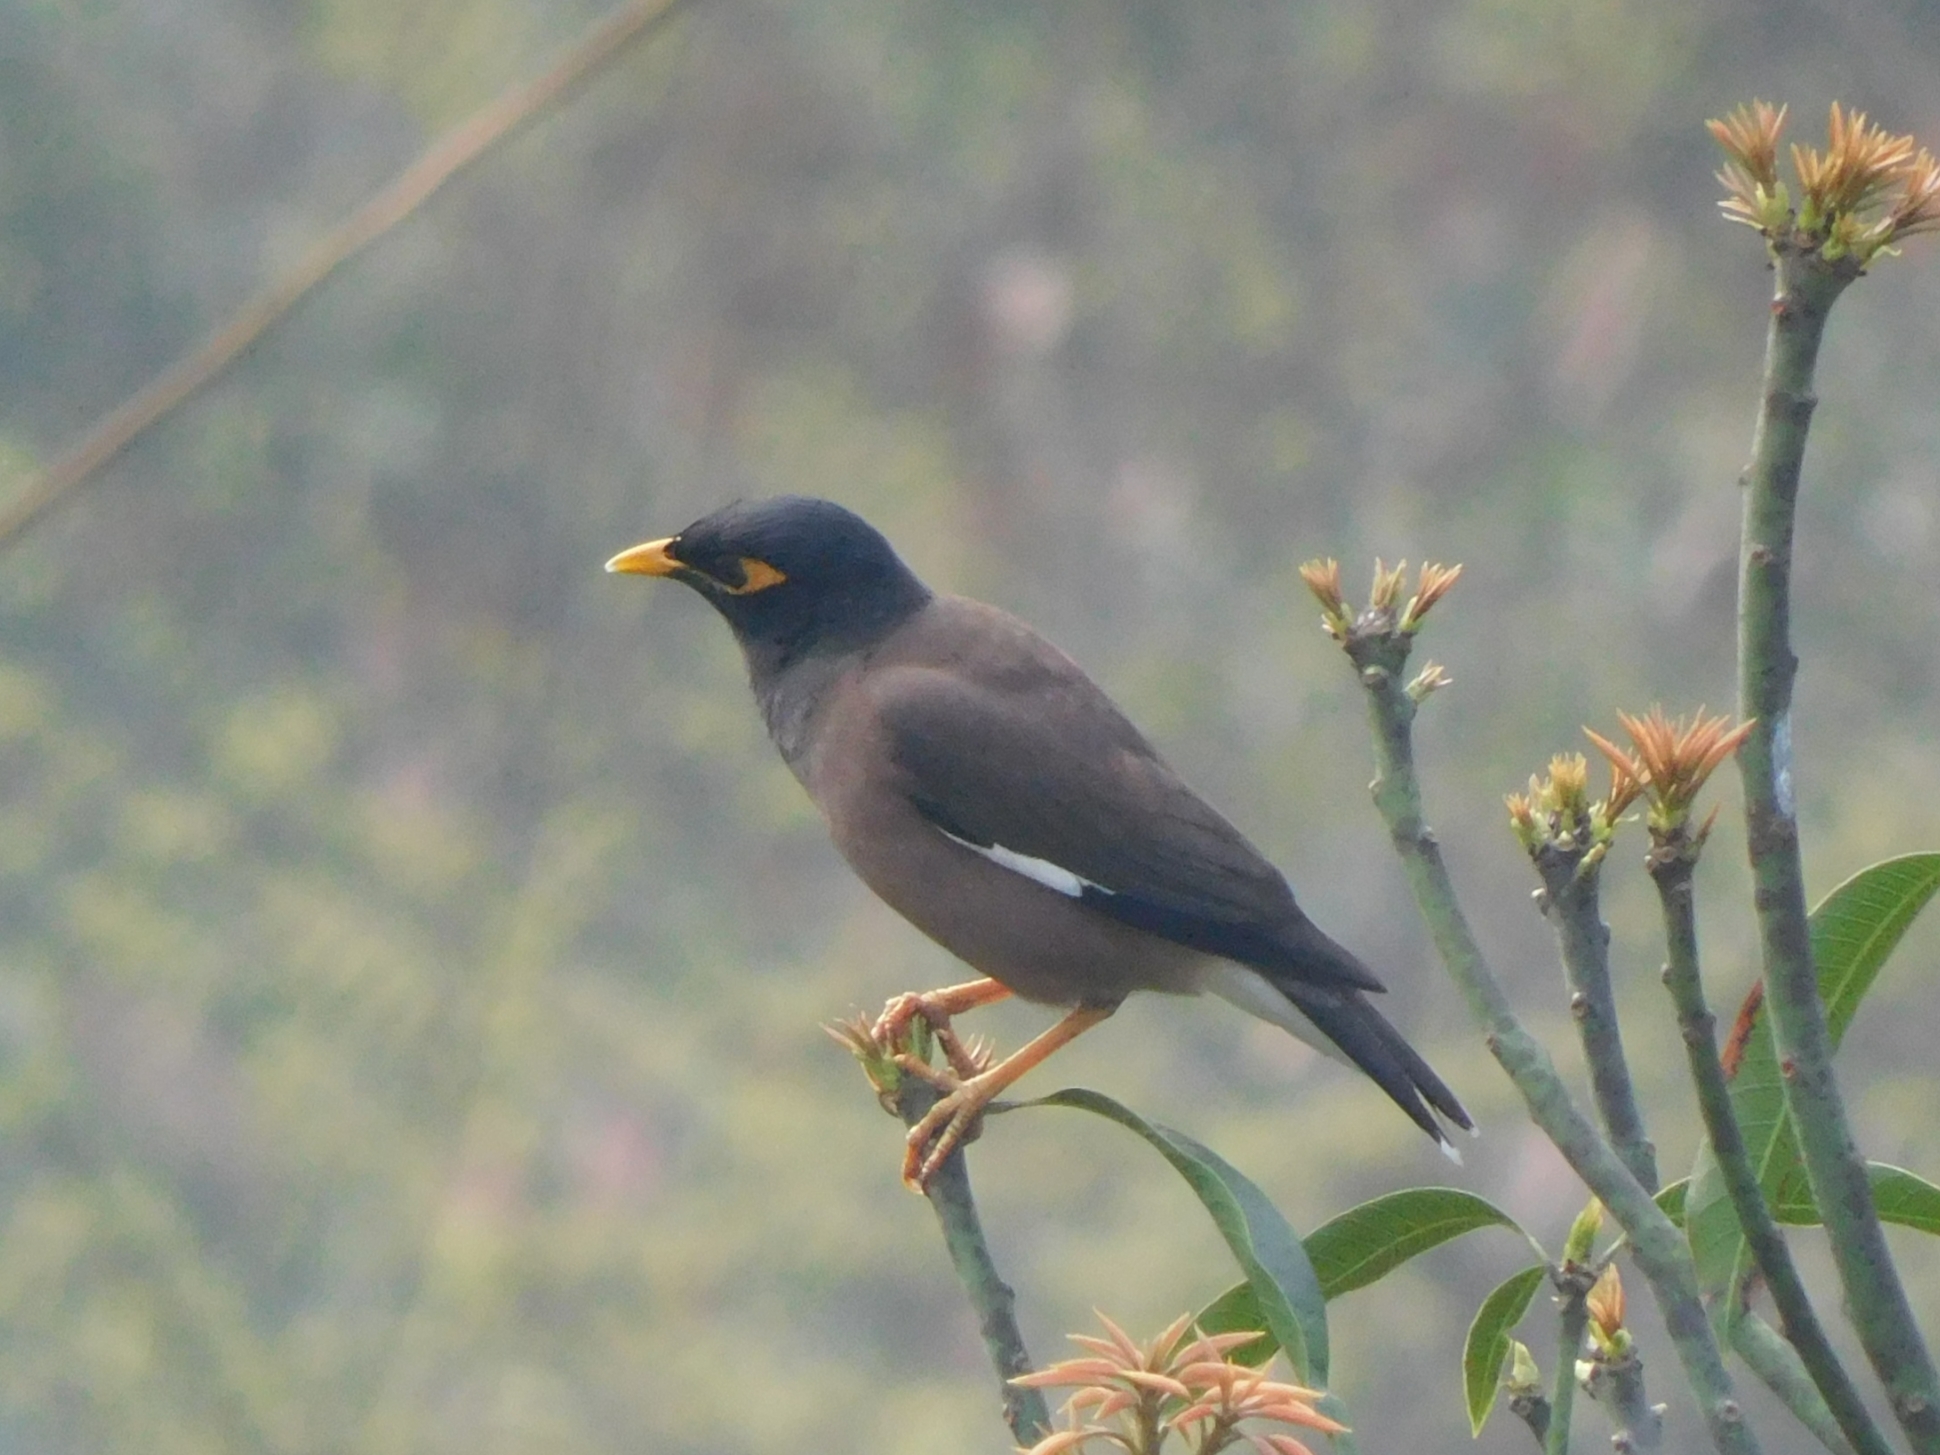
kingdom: Animalia
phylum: Chordata
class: Aves
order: Passeriformes
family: Sturnidae
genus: Acridotheres
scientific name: Acridotheres tristis
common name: Common myna
